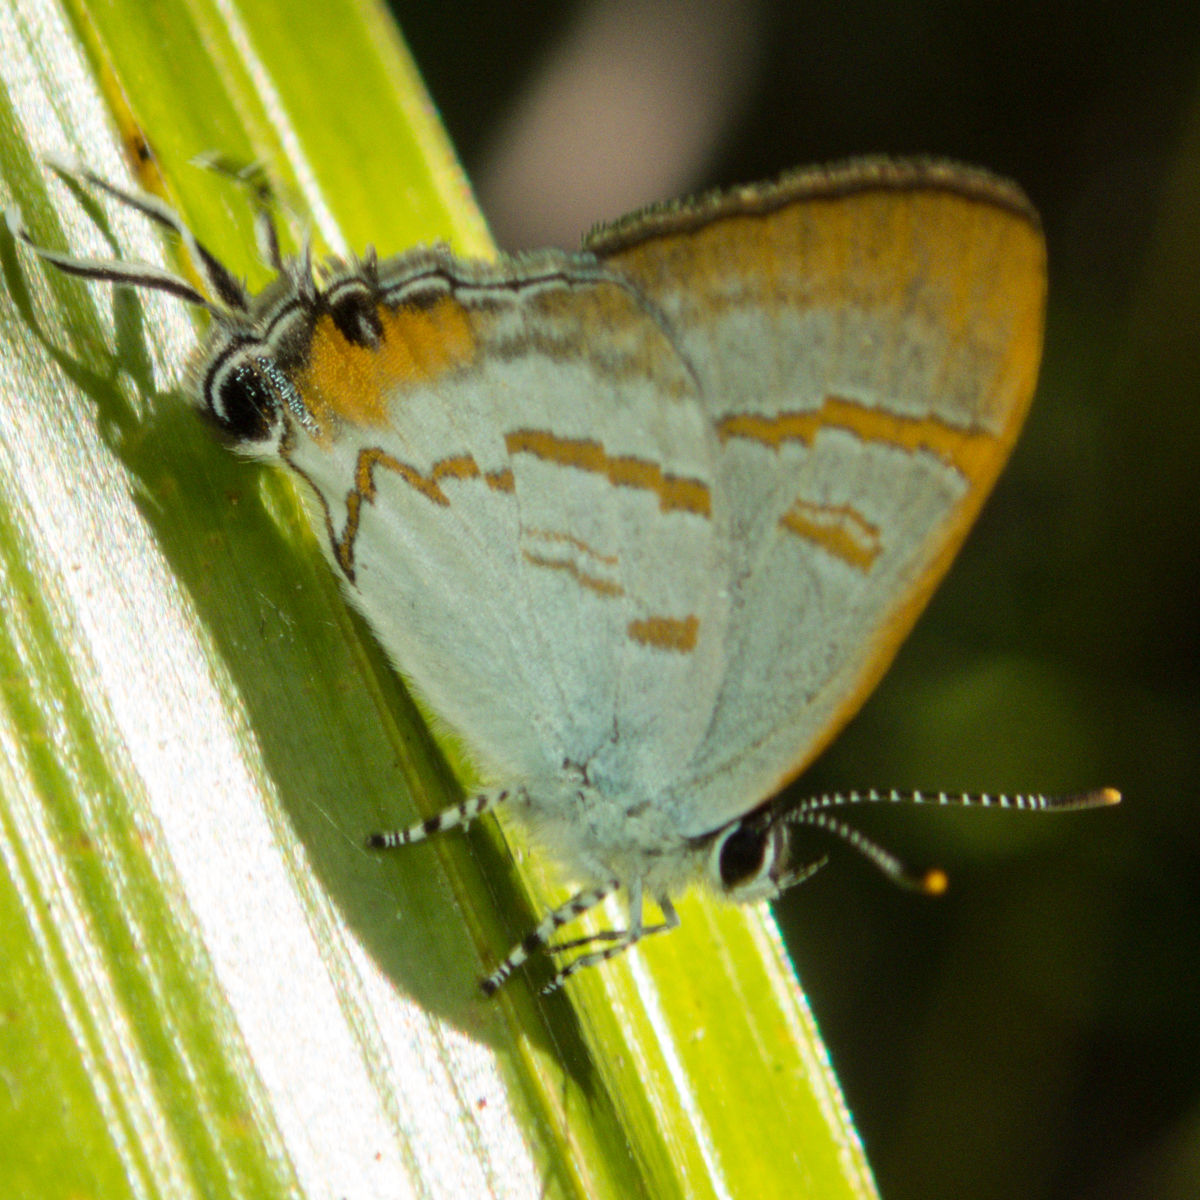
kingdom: Animalia
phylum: Arthropoda
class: Insecta
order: Lepidoptera
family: Lycaenidae
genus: Hypolycaena
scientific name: Hypolycaena thecloides
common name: Dark tit
